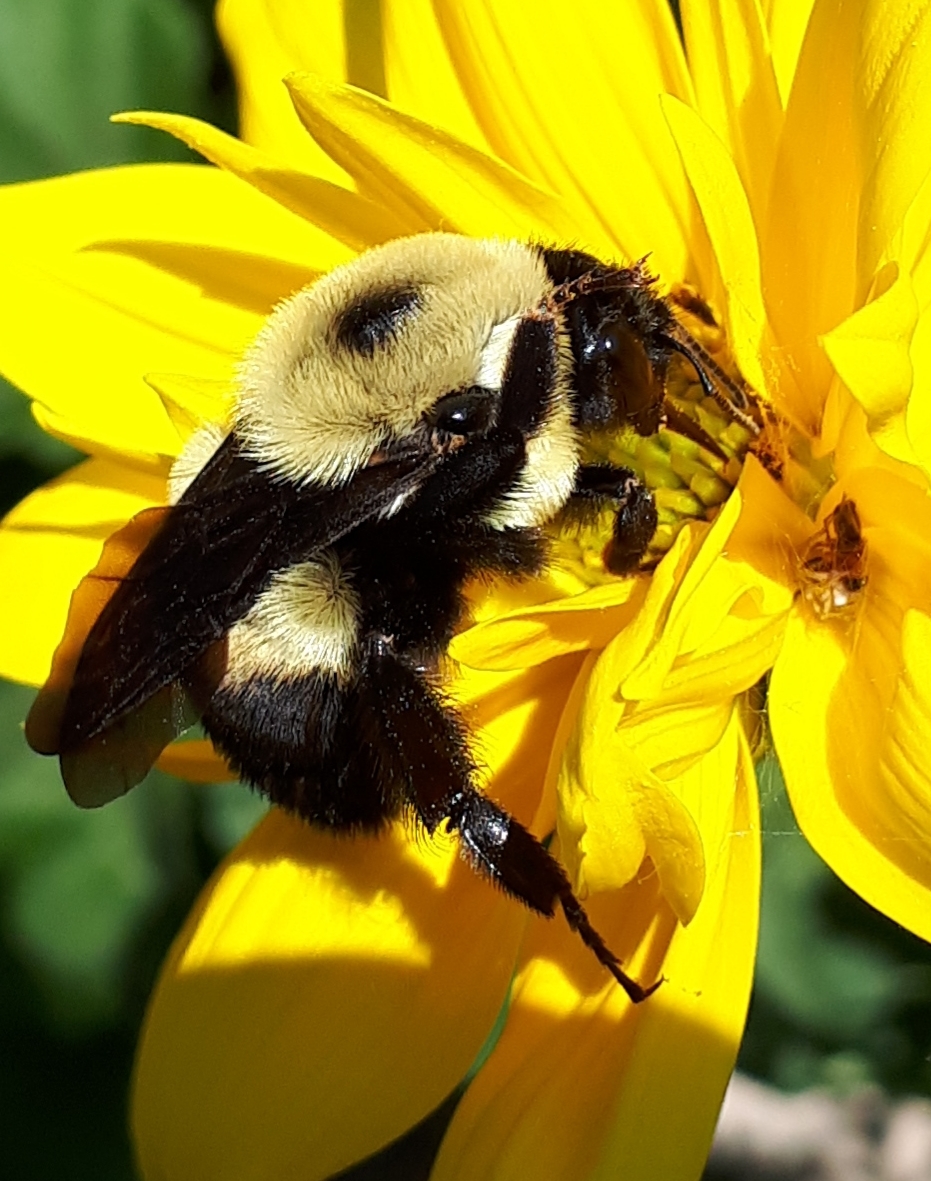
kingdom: Animalia
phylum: Arthropoda
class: Insecta
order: Hymenoptera
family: Apidae
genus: Bombus
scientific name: Bombus griseocollis
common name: Brown-belted bumble bee
